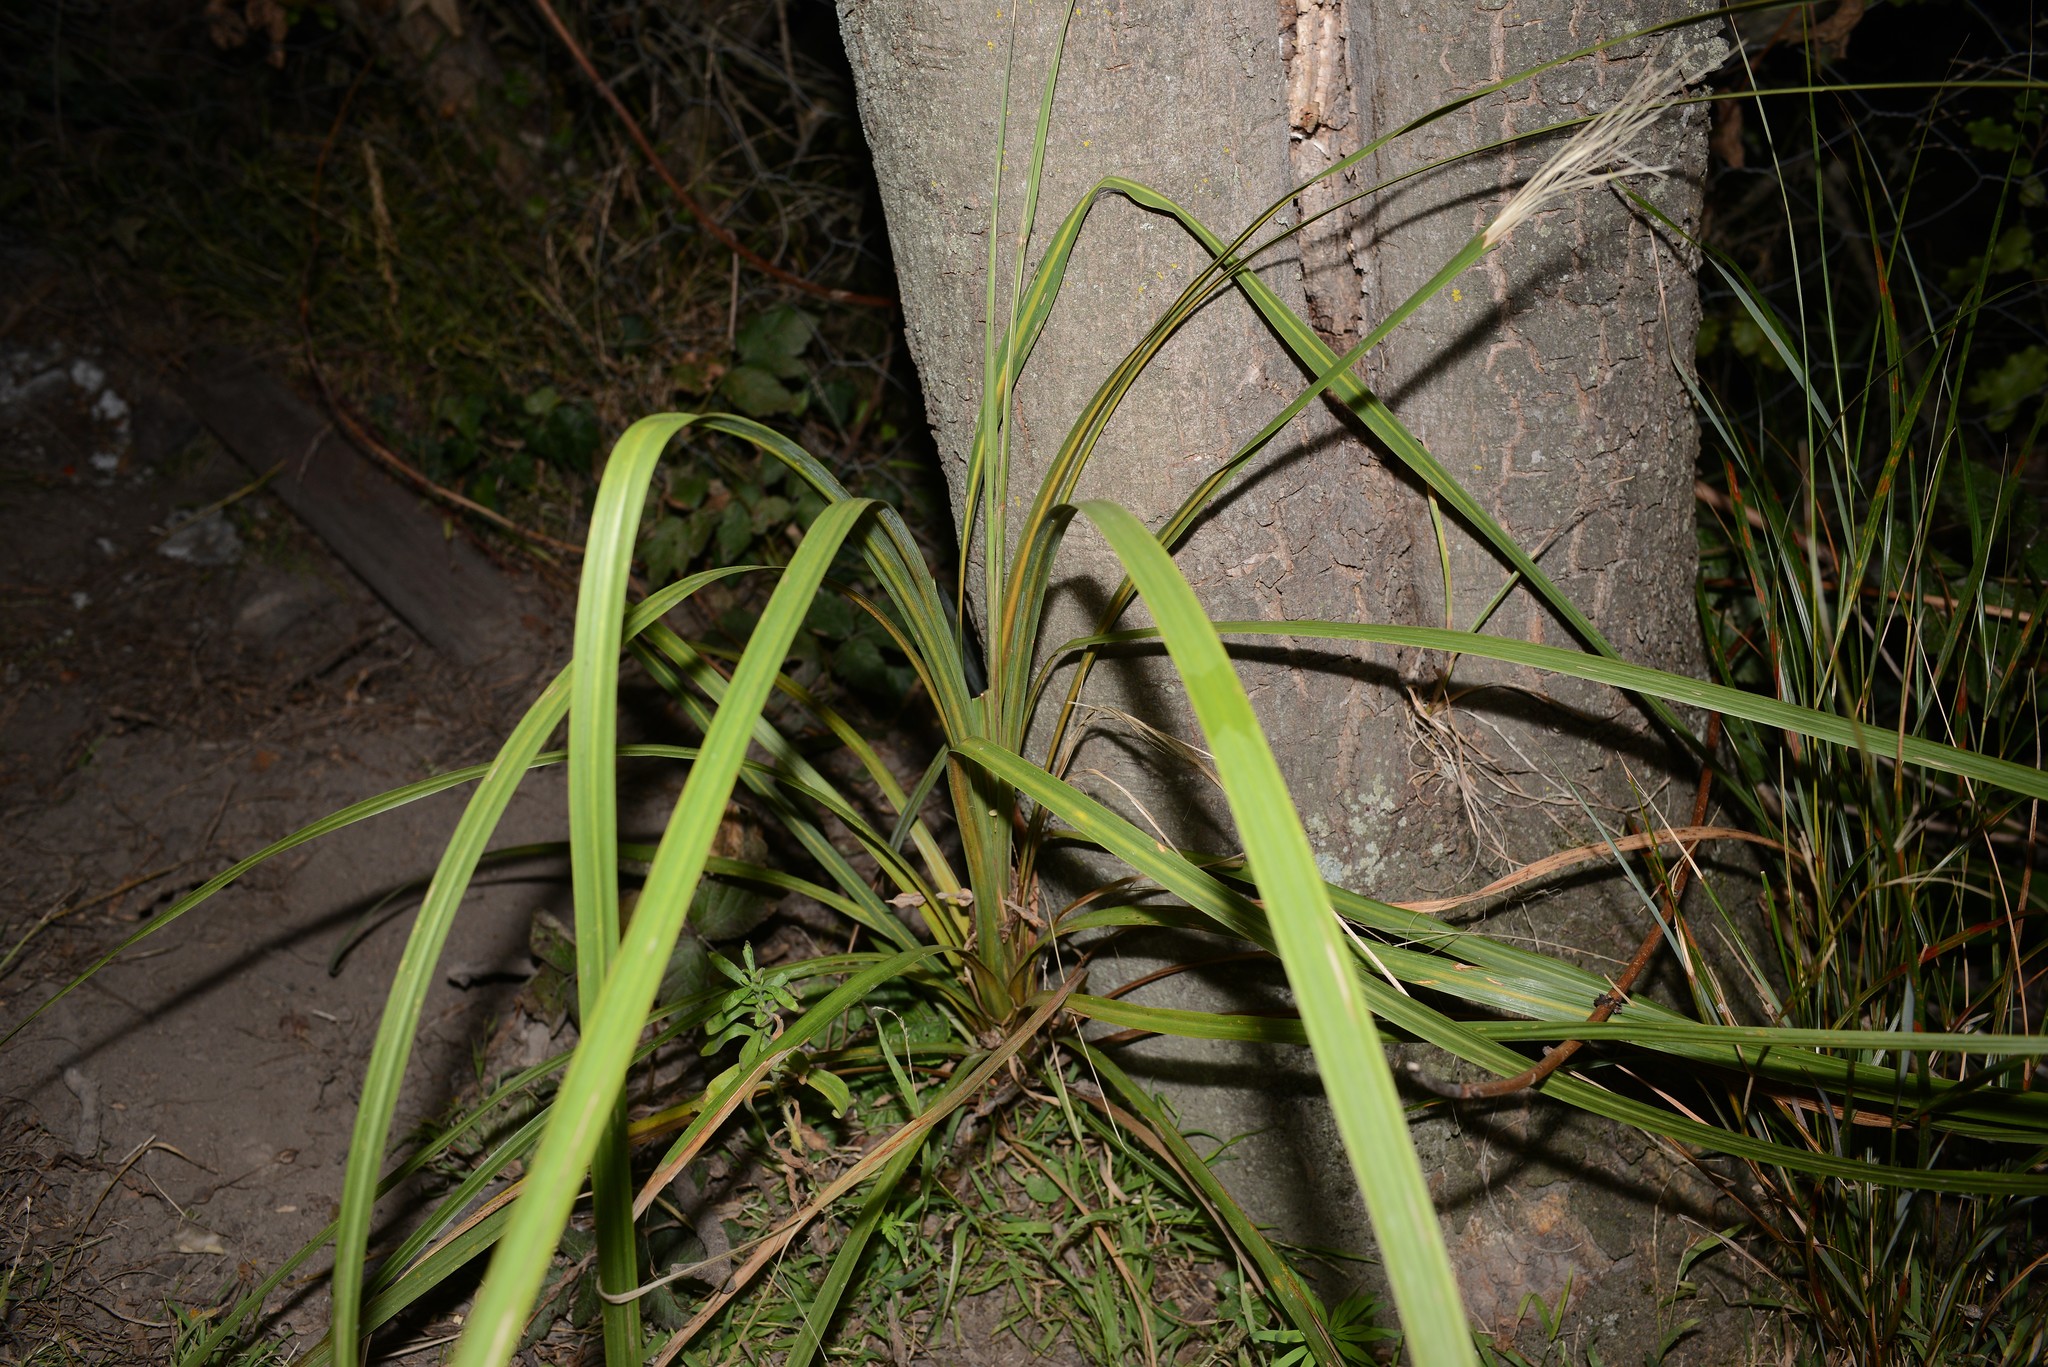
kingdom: Plantae
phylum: Tracheophyta
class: Liliopsida
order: Asparagales
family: Asparagaceae
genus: Cordyline
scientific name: Cordyline australis
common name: Cabbage-palm
